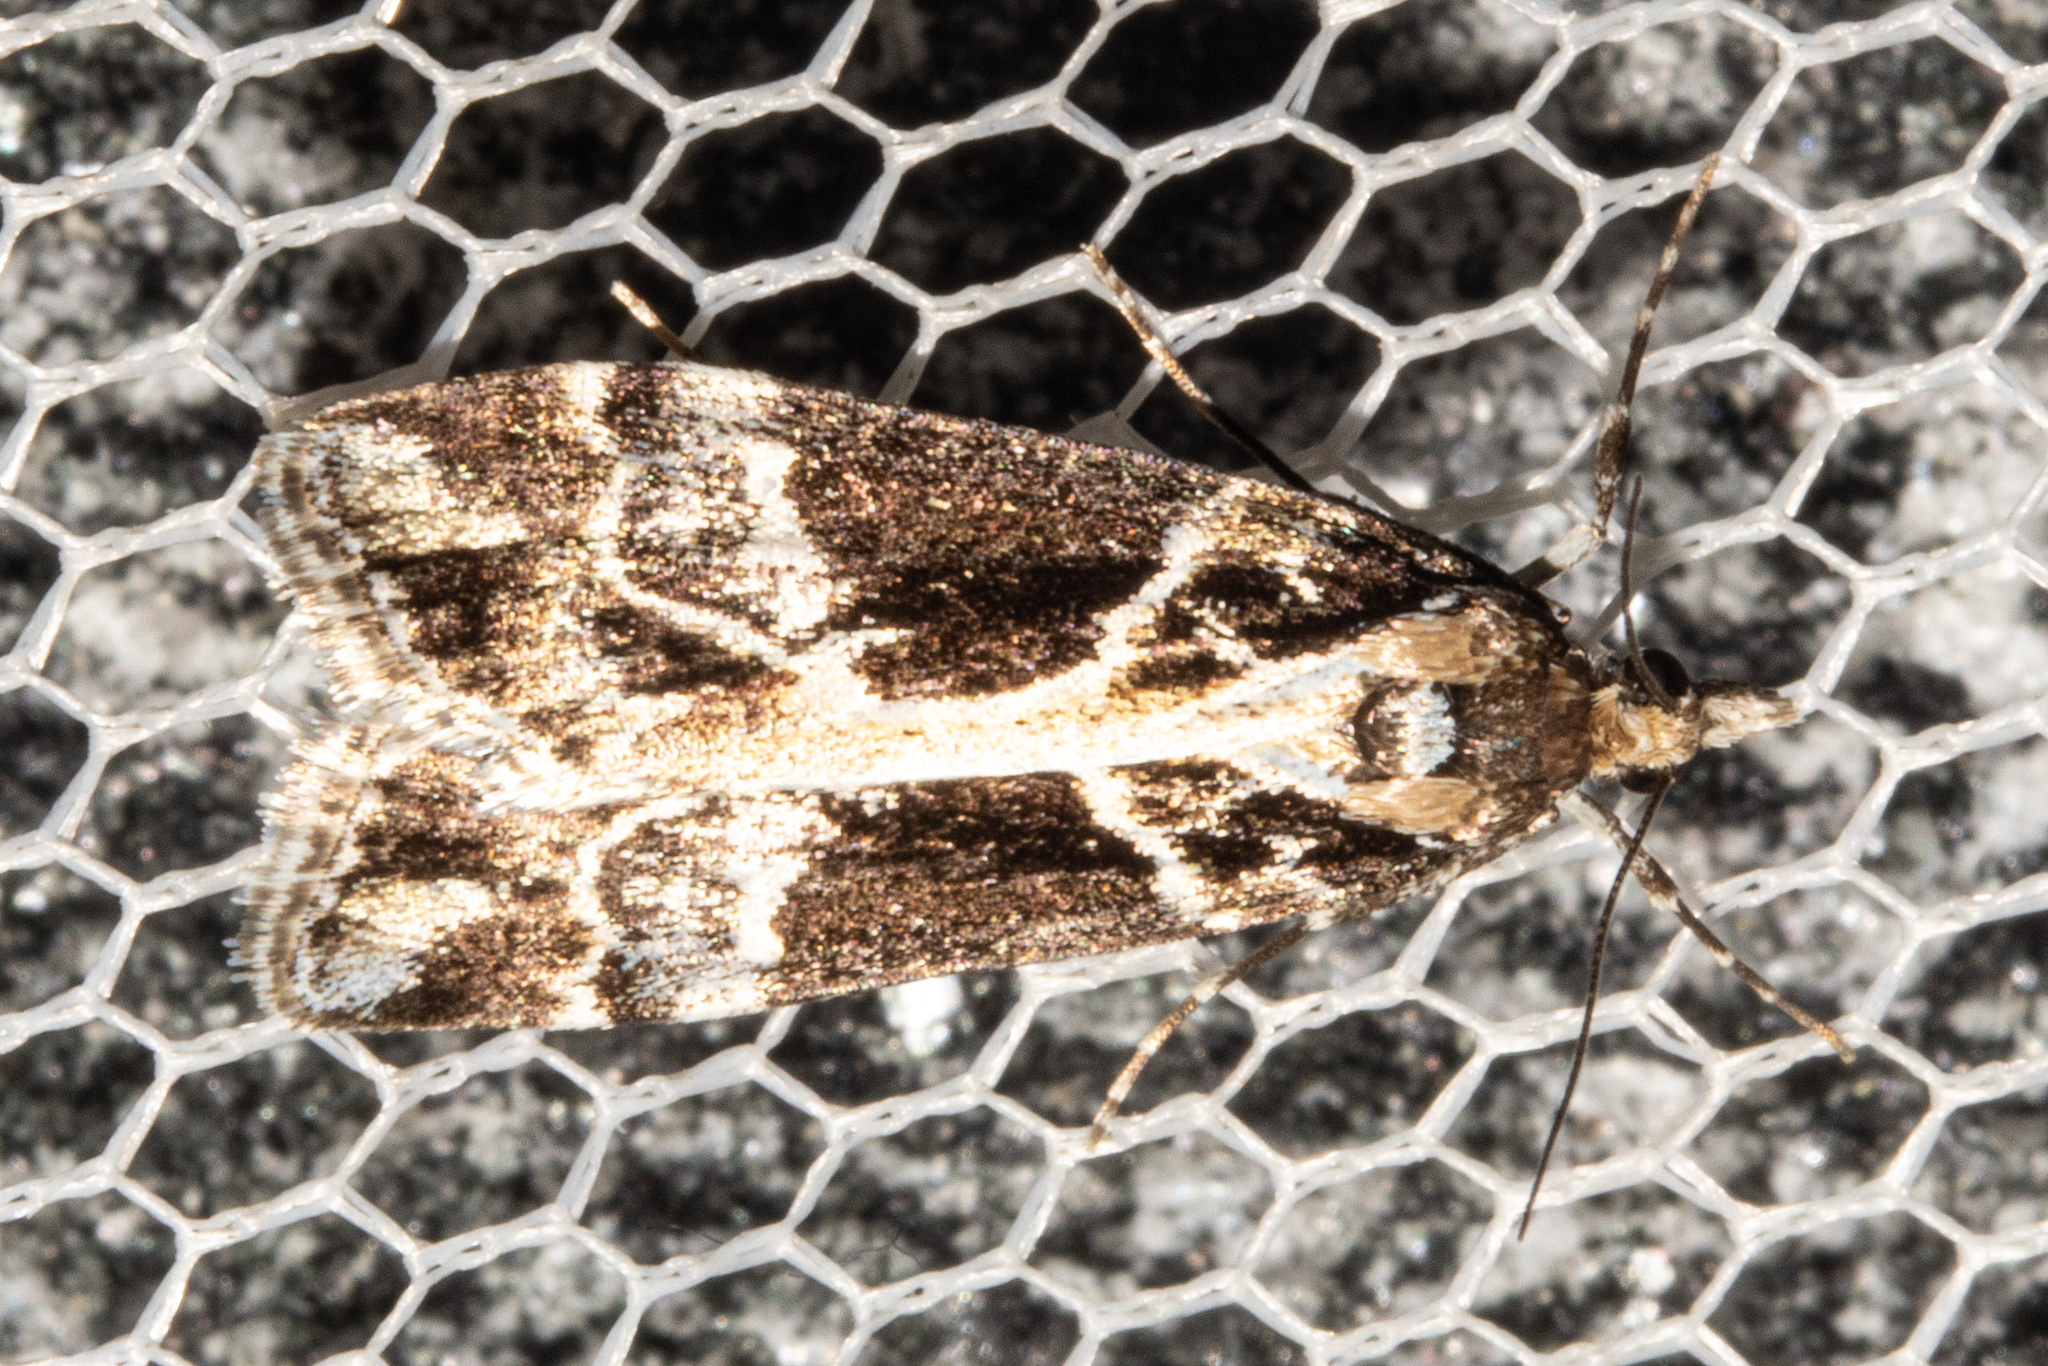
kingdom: Animalia
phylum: Arthropoda
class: Insecta
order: Lepidoptera
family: Crambidae
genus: Eudonia
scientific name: Eudonia melanaegis
